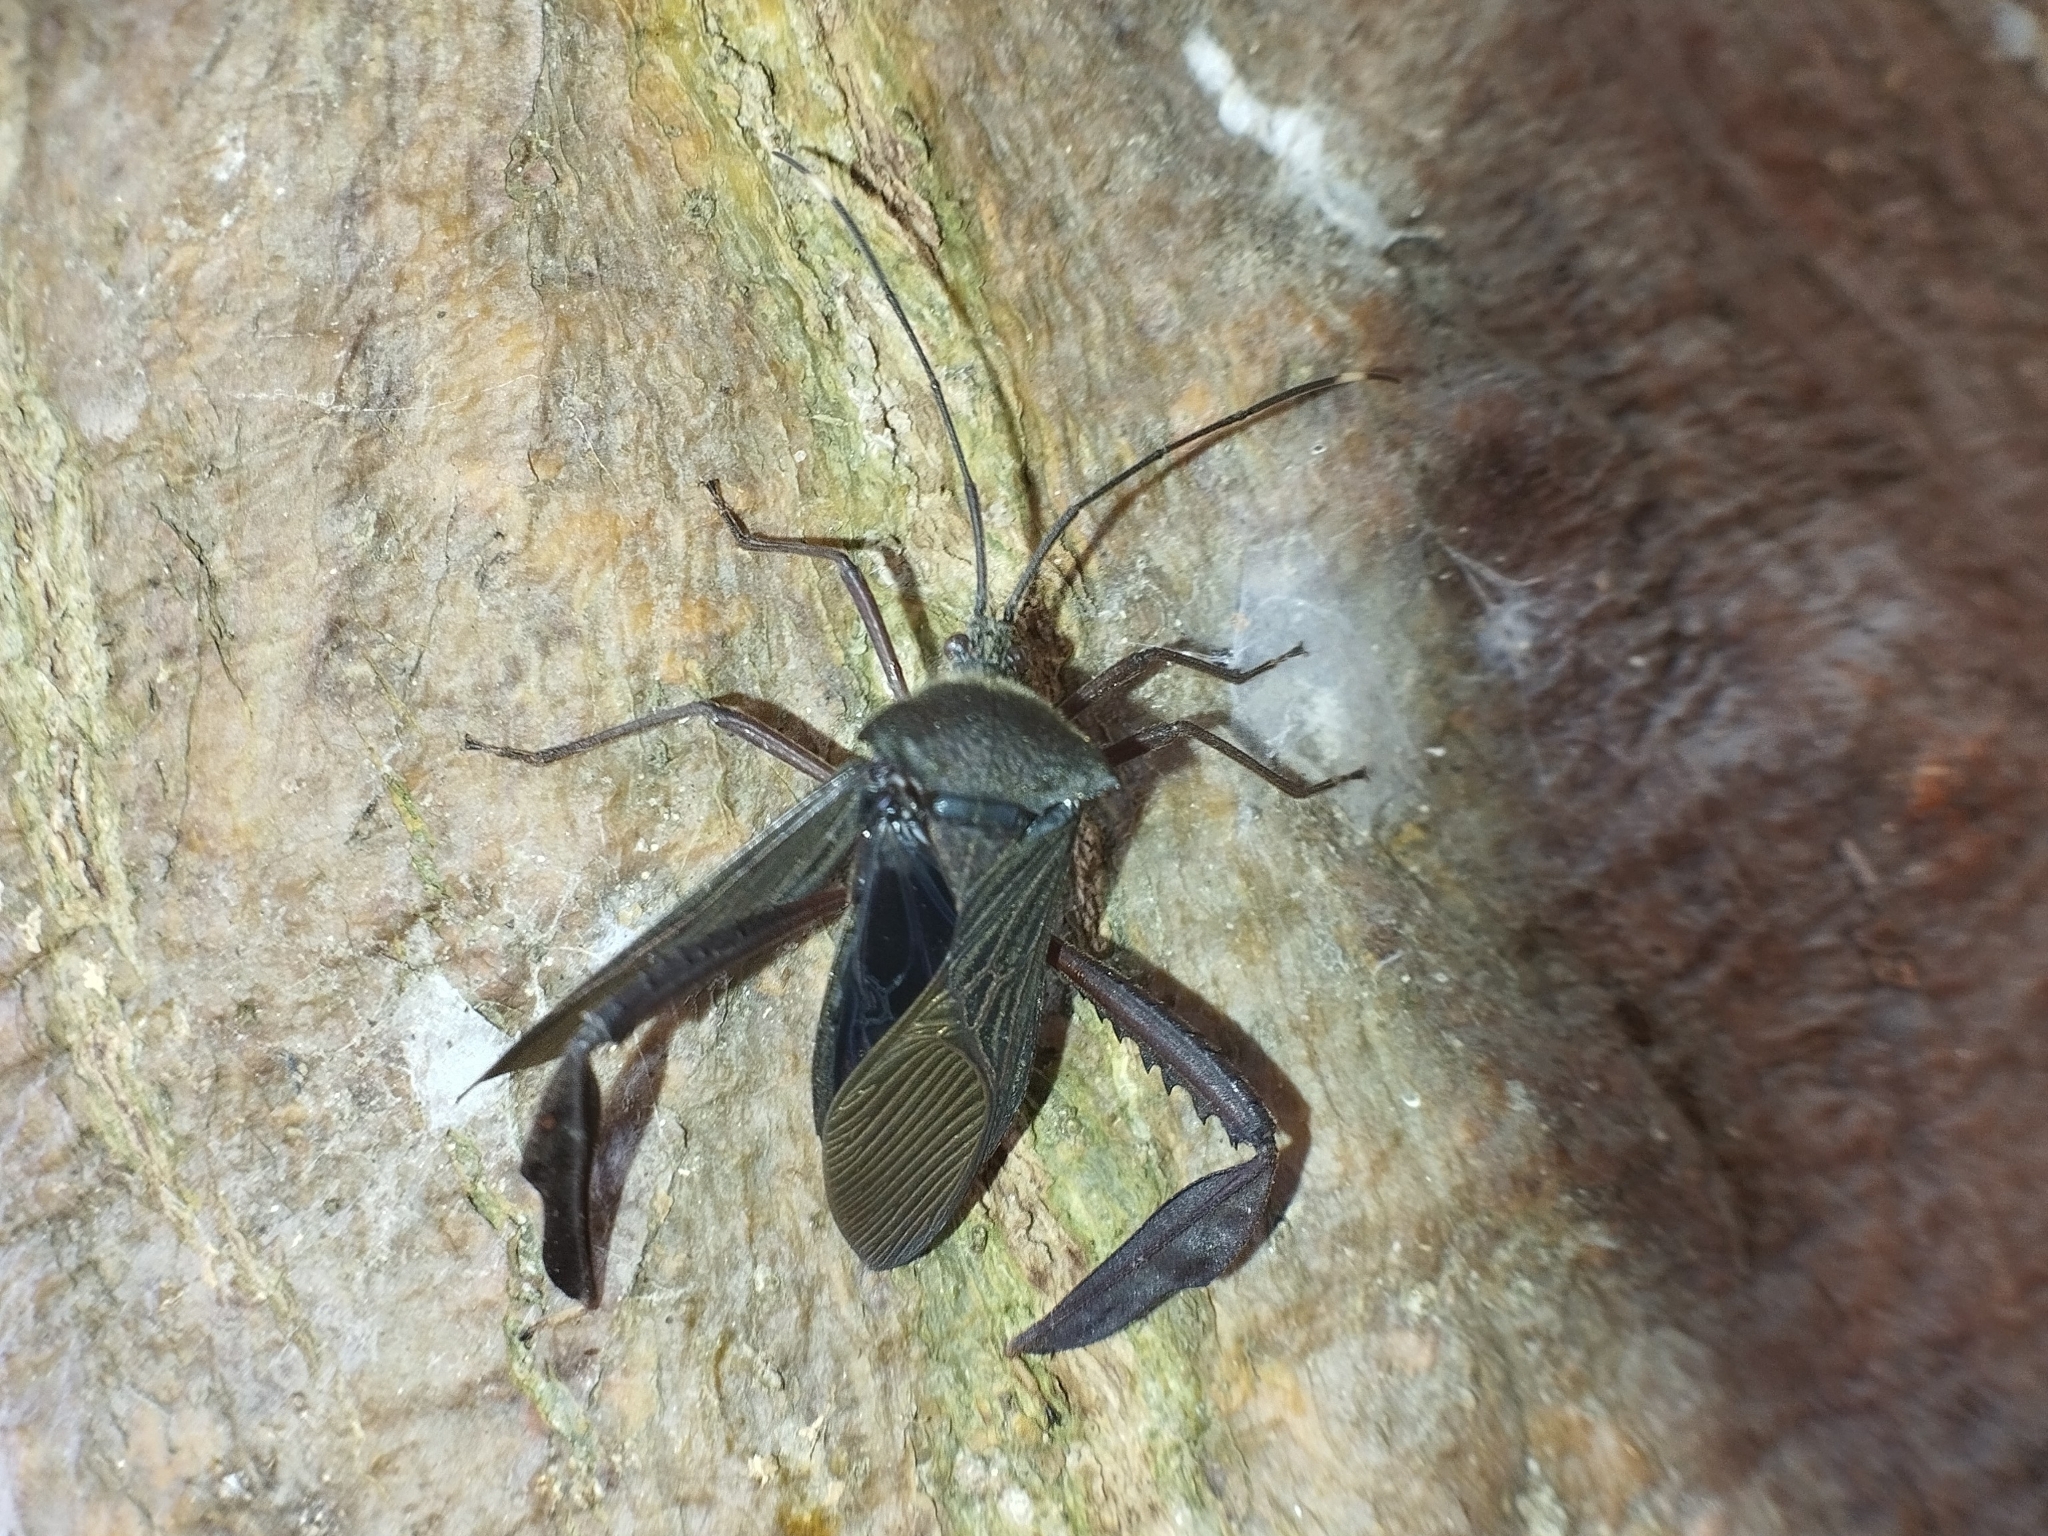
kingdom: Animalia
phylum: Arthropoda
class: Insecta
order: Hemiptera
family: Coreidae
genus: Acanthocephala
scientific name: Acanthocephala parensis
